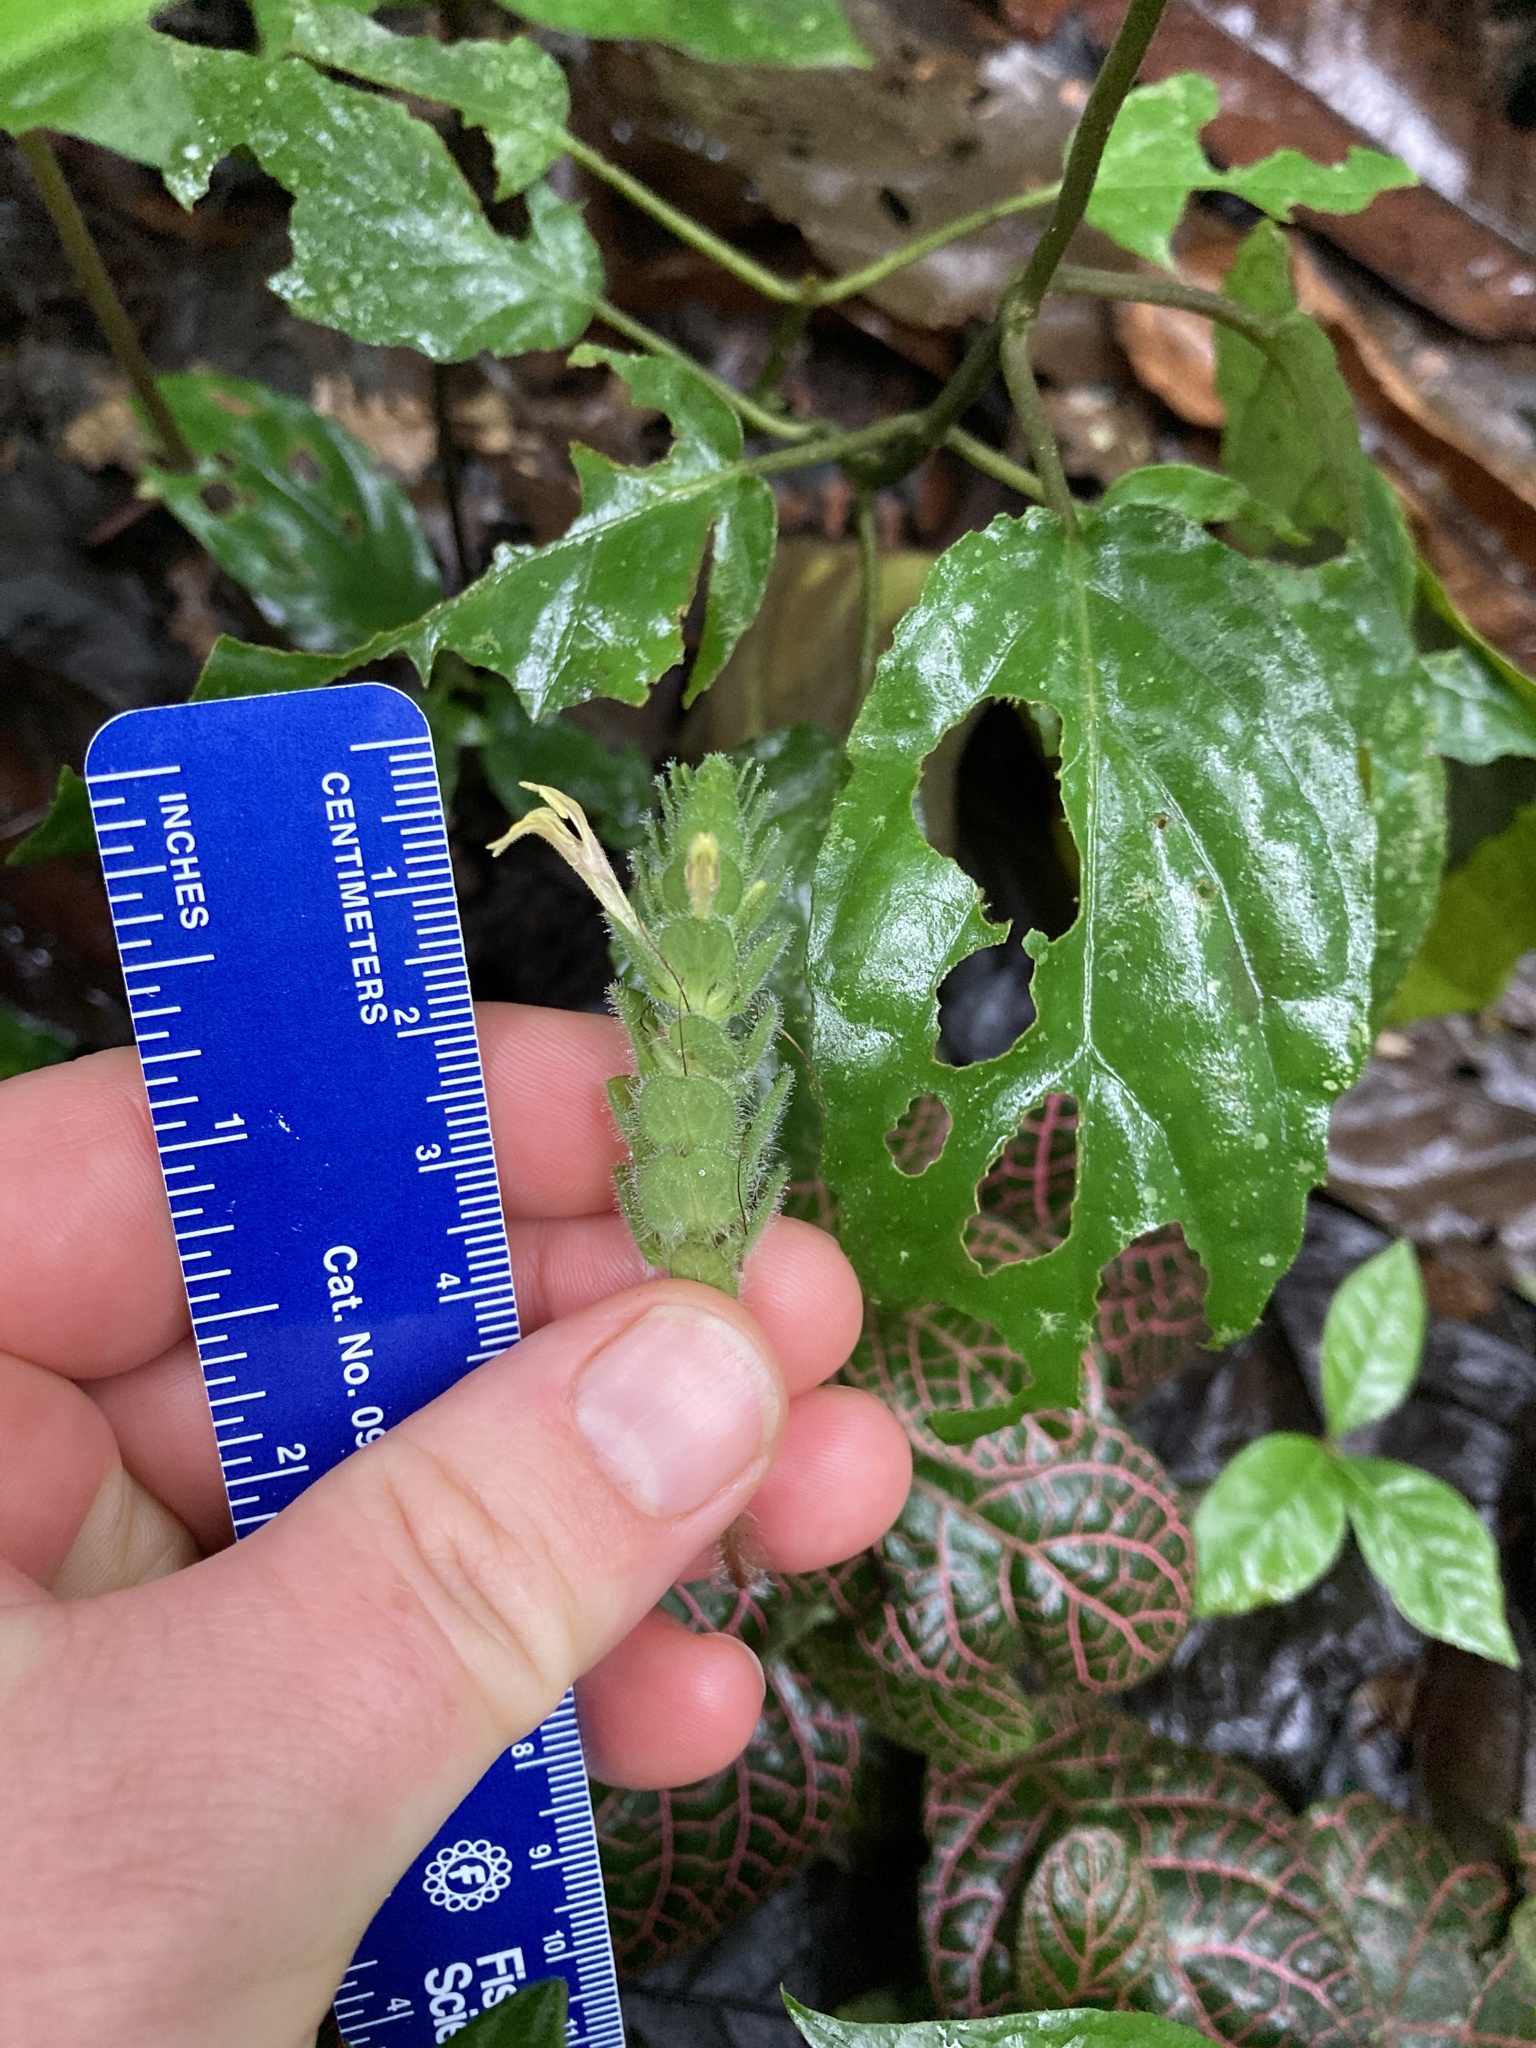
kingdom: Plantae
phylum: Tracheophyta
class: Magnoliopsida
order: Lamiales
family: Acanthaceae
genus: Fittonia
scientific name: Fittonia albivenis
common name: Mosaic-plant
